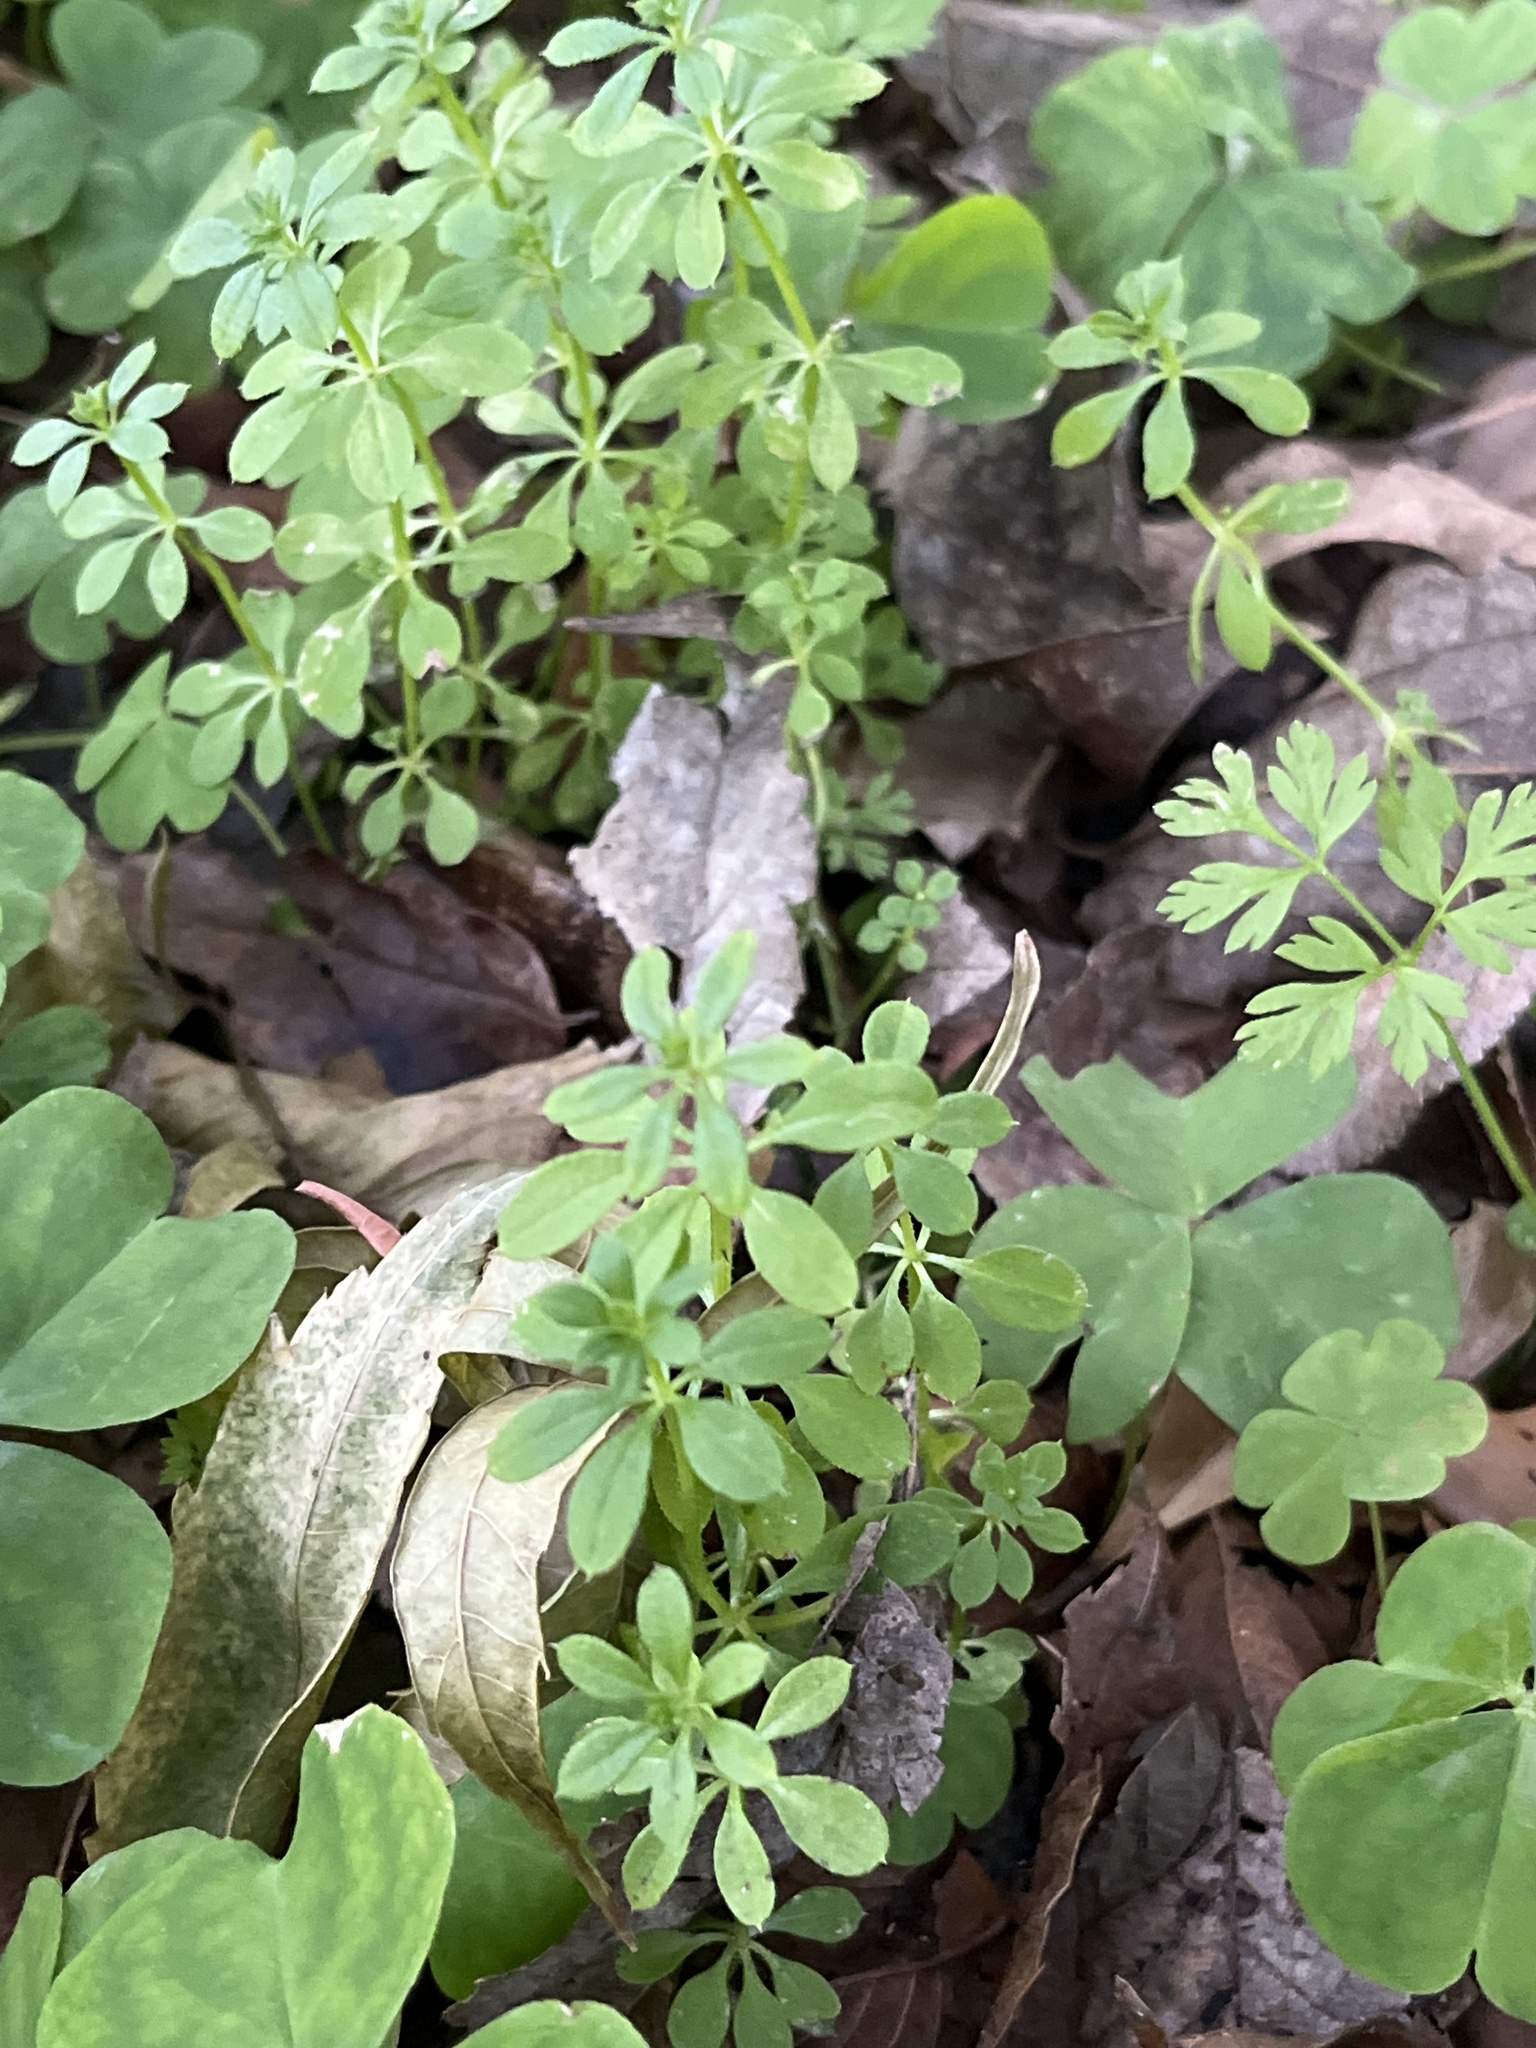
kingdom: Plantae
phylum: Tracheophyta
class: Magnoliopsida
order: Gentianales
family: Rubiaceae
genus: Galium
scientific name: Galium aparine
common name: Cleavers
